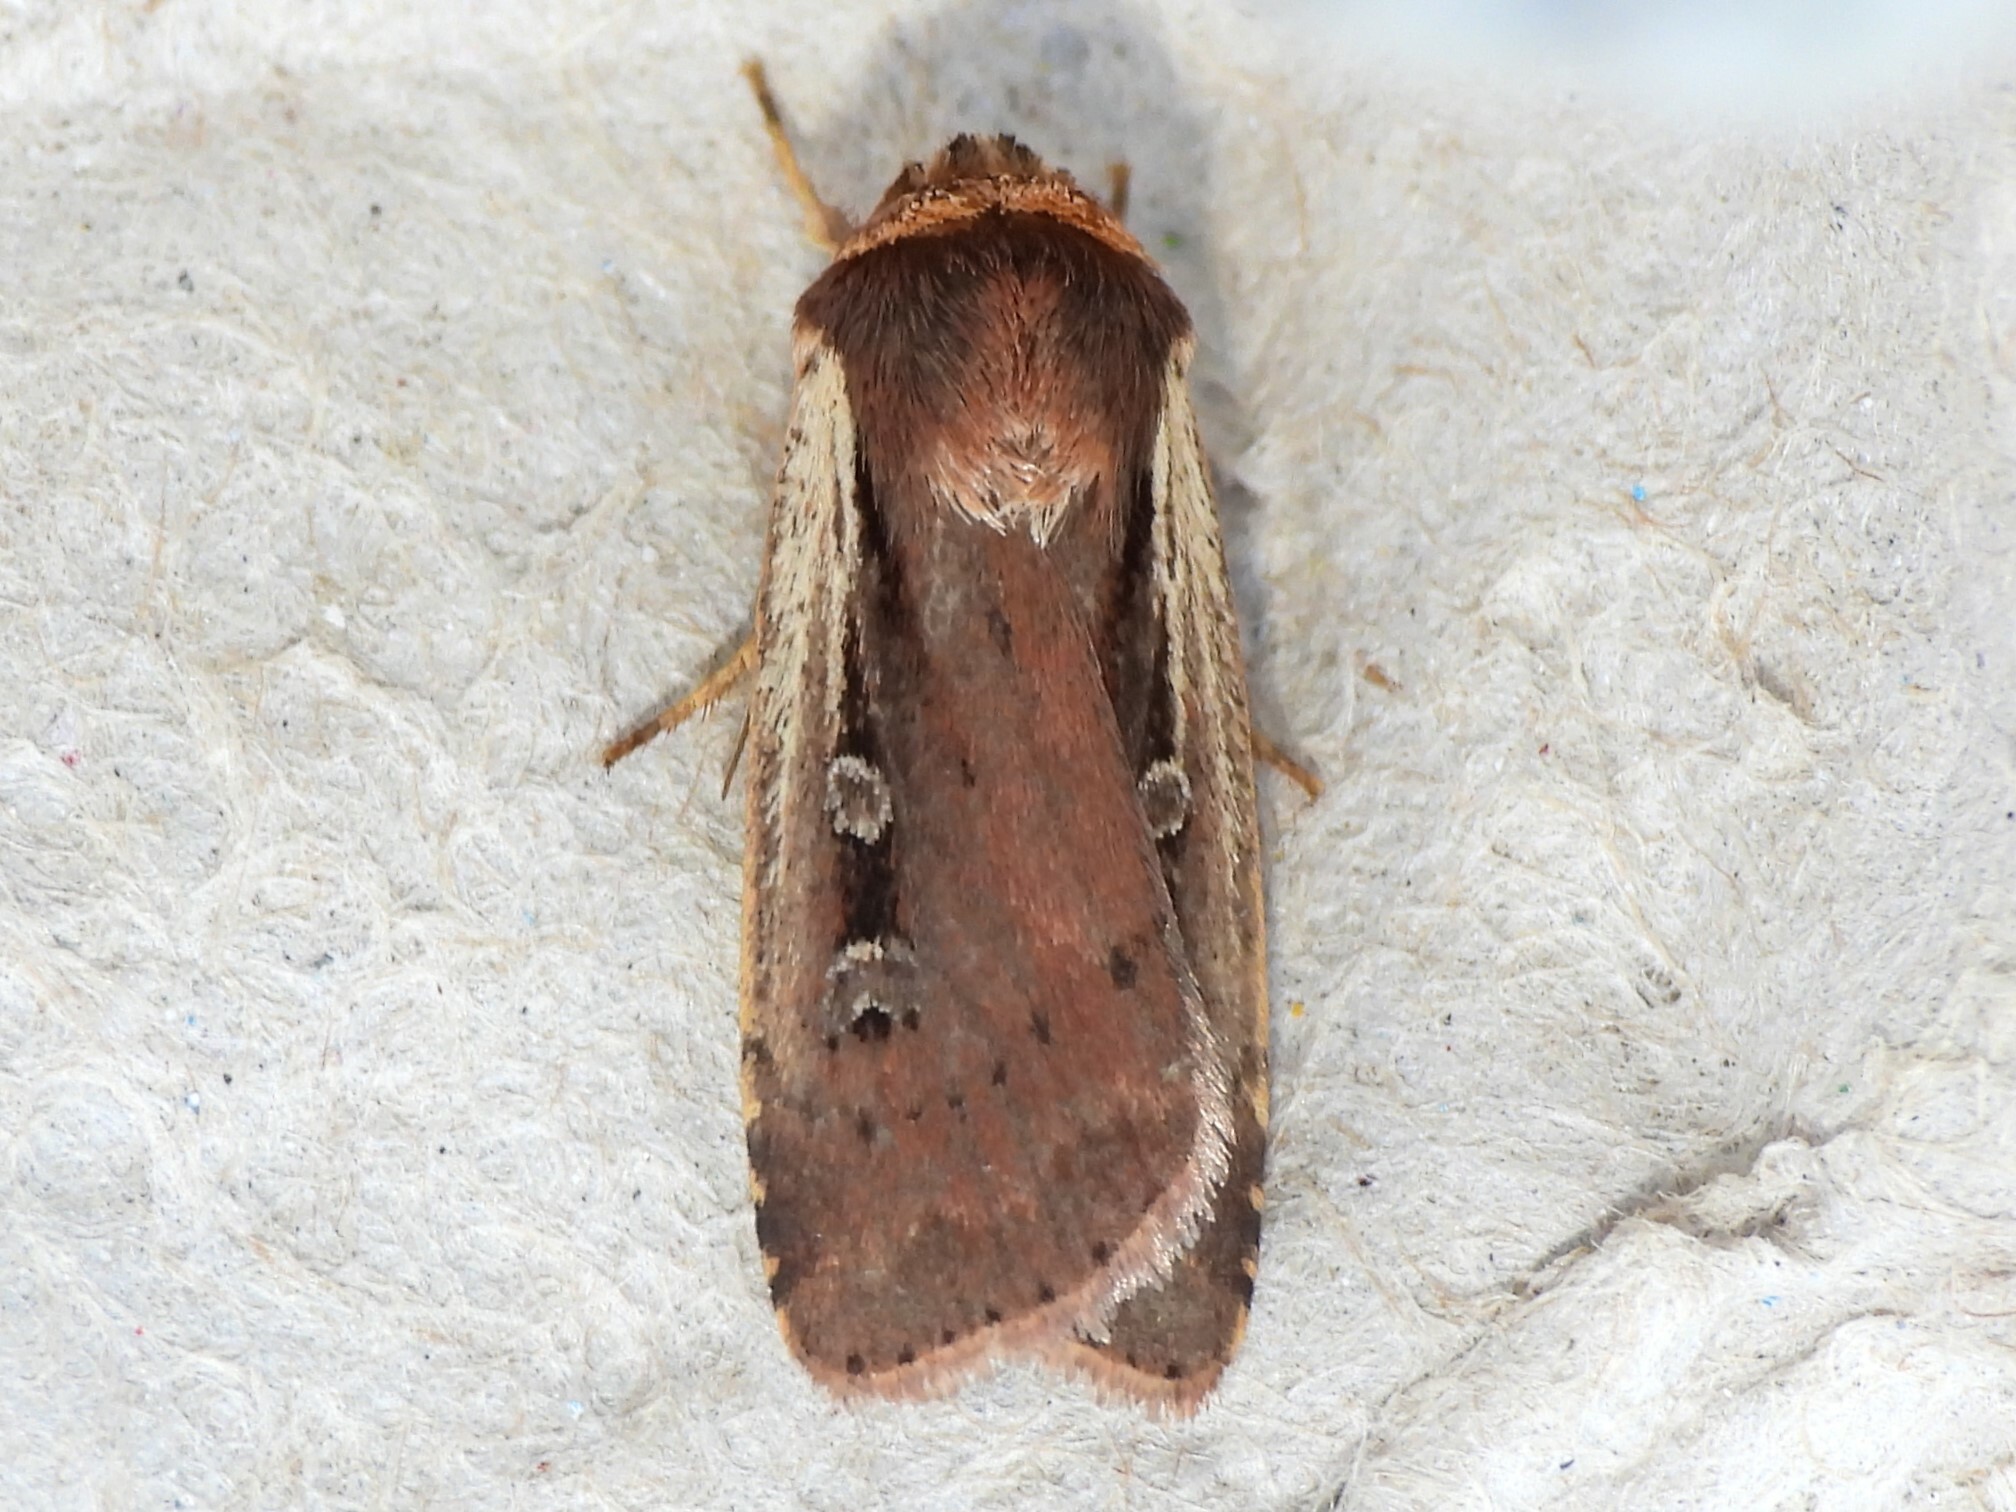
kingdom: Animalia
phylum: Arthropoda
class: Insecta
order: Lepidoptera
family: Noctuidae
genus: Ochropleura
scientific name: Ochropleura implecta
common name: Flame-shouldered dart
